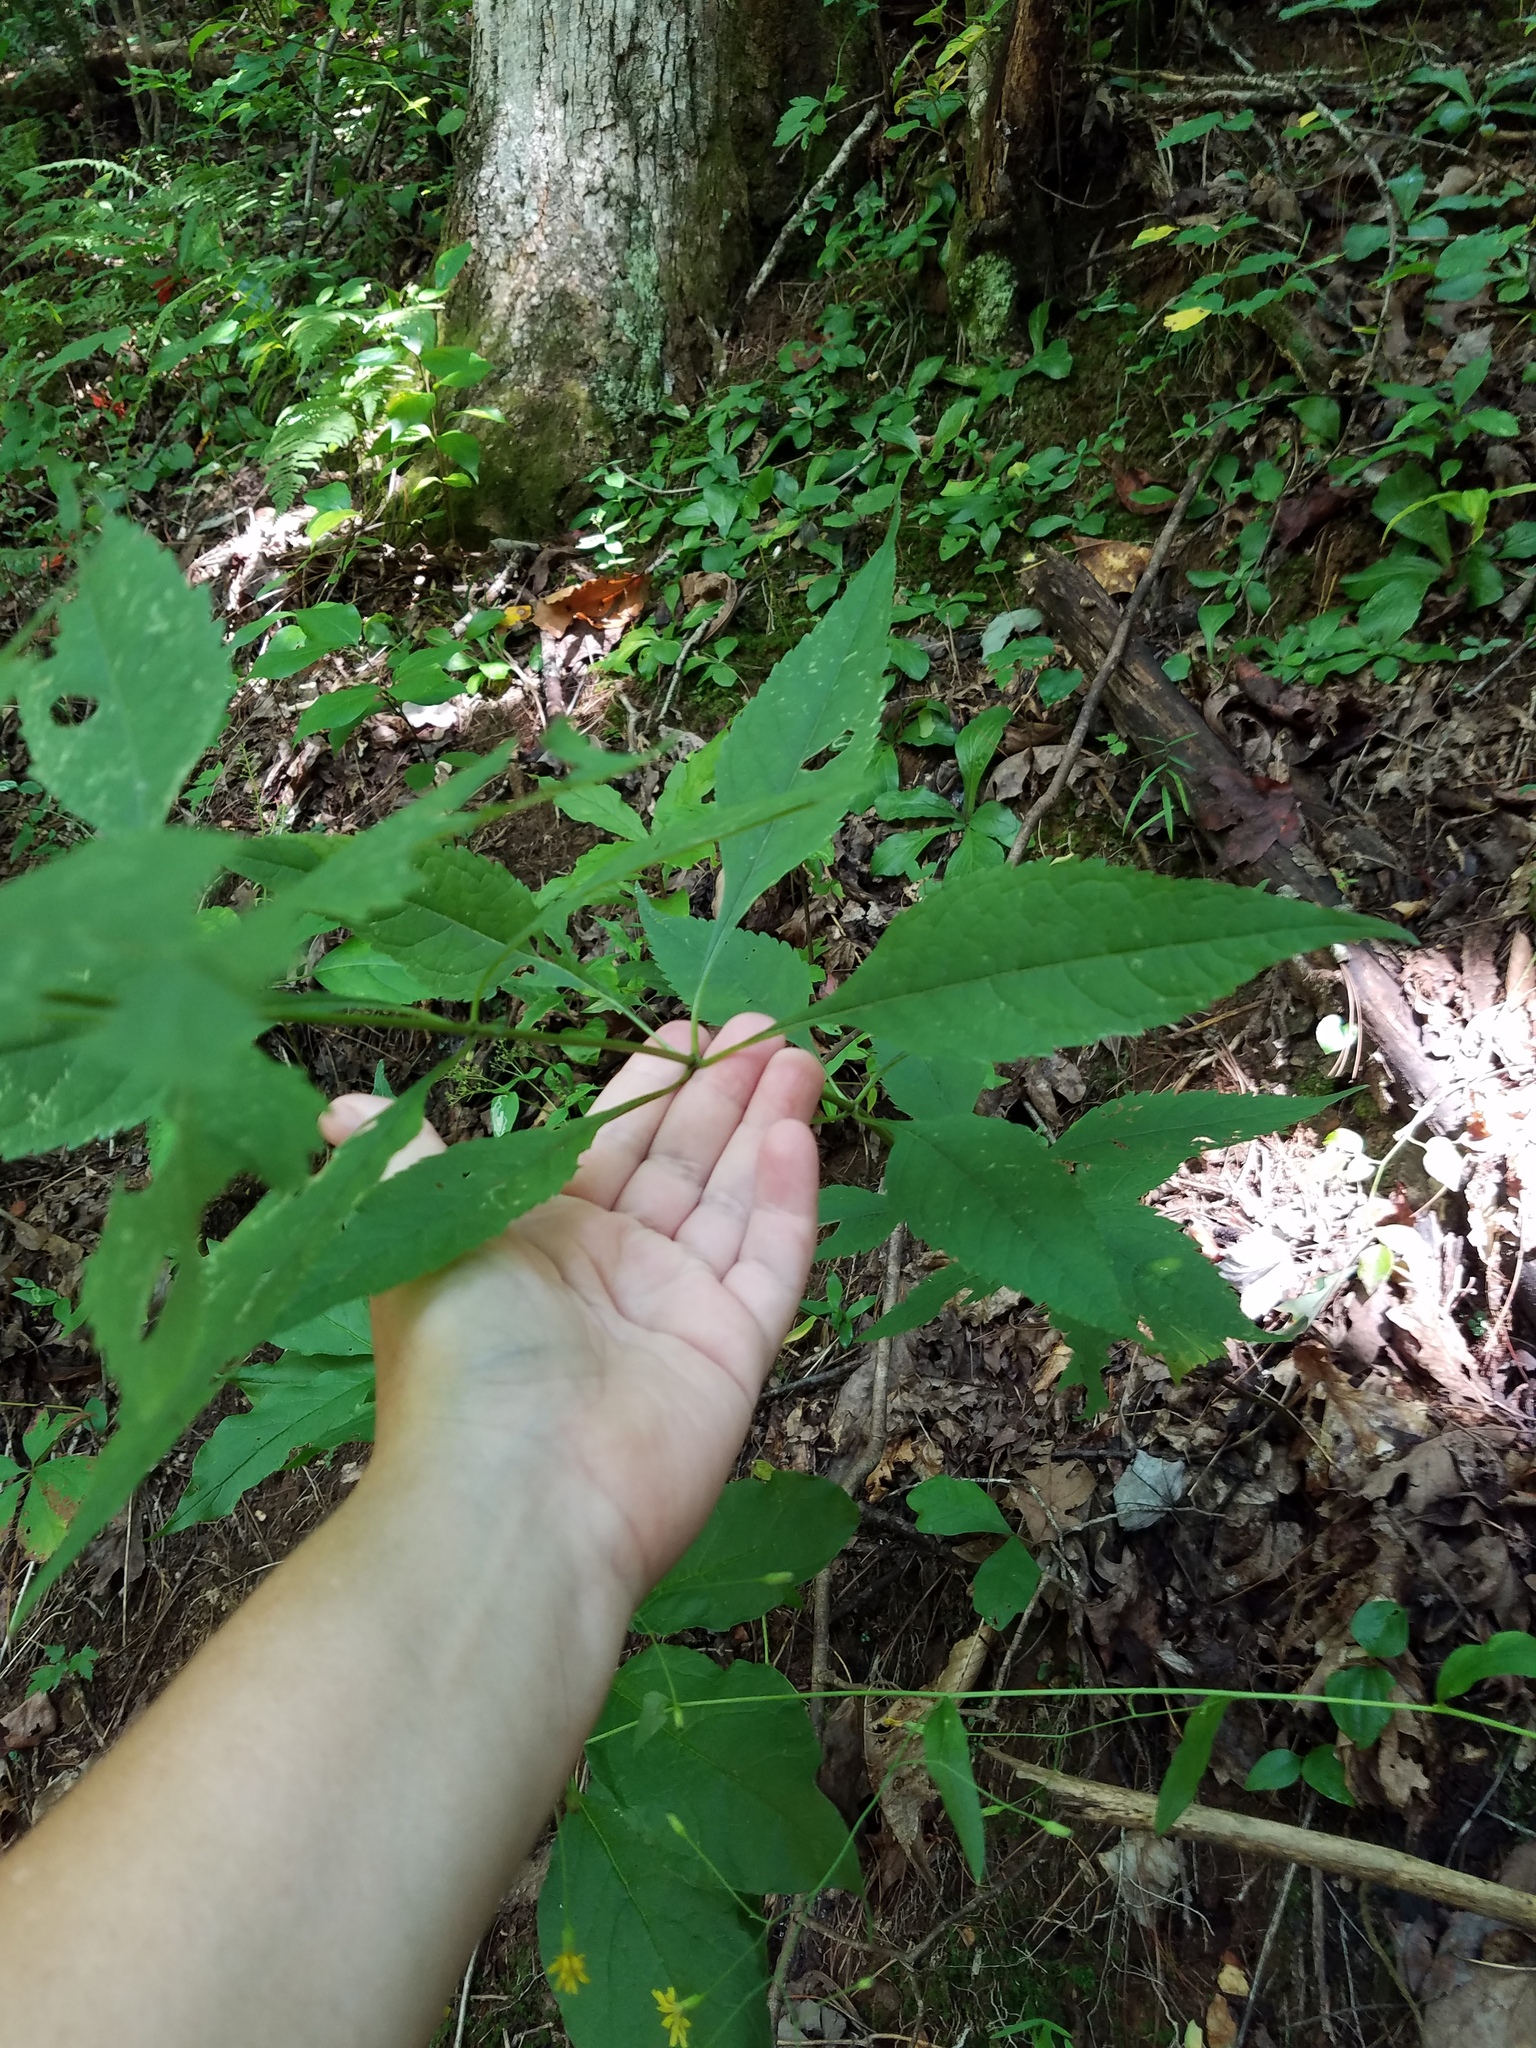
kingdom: Plantae
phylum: Tracheophyta
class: Magnoliopsida
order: Asterales
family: Asteraceae
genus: Eutrochium
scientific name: Eutrochium purpureum
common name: Gravelroot
